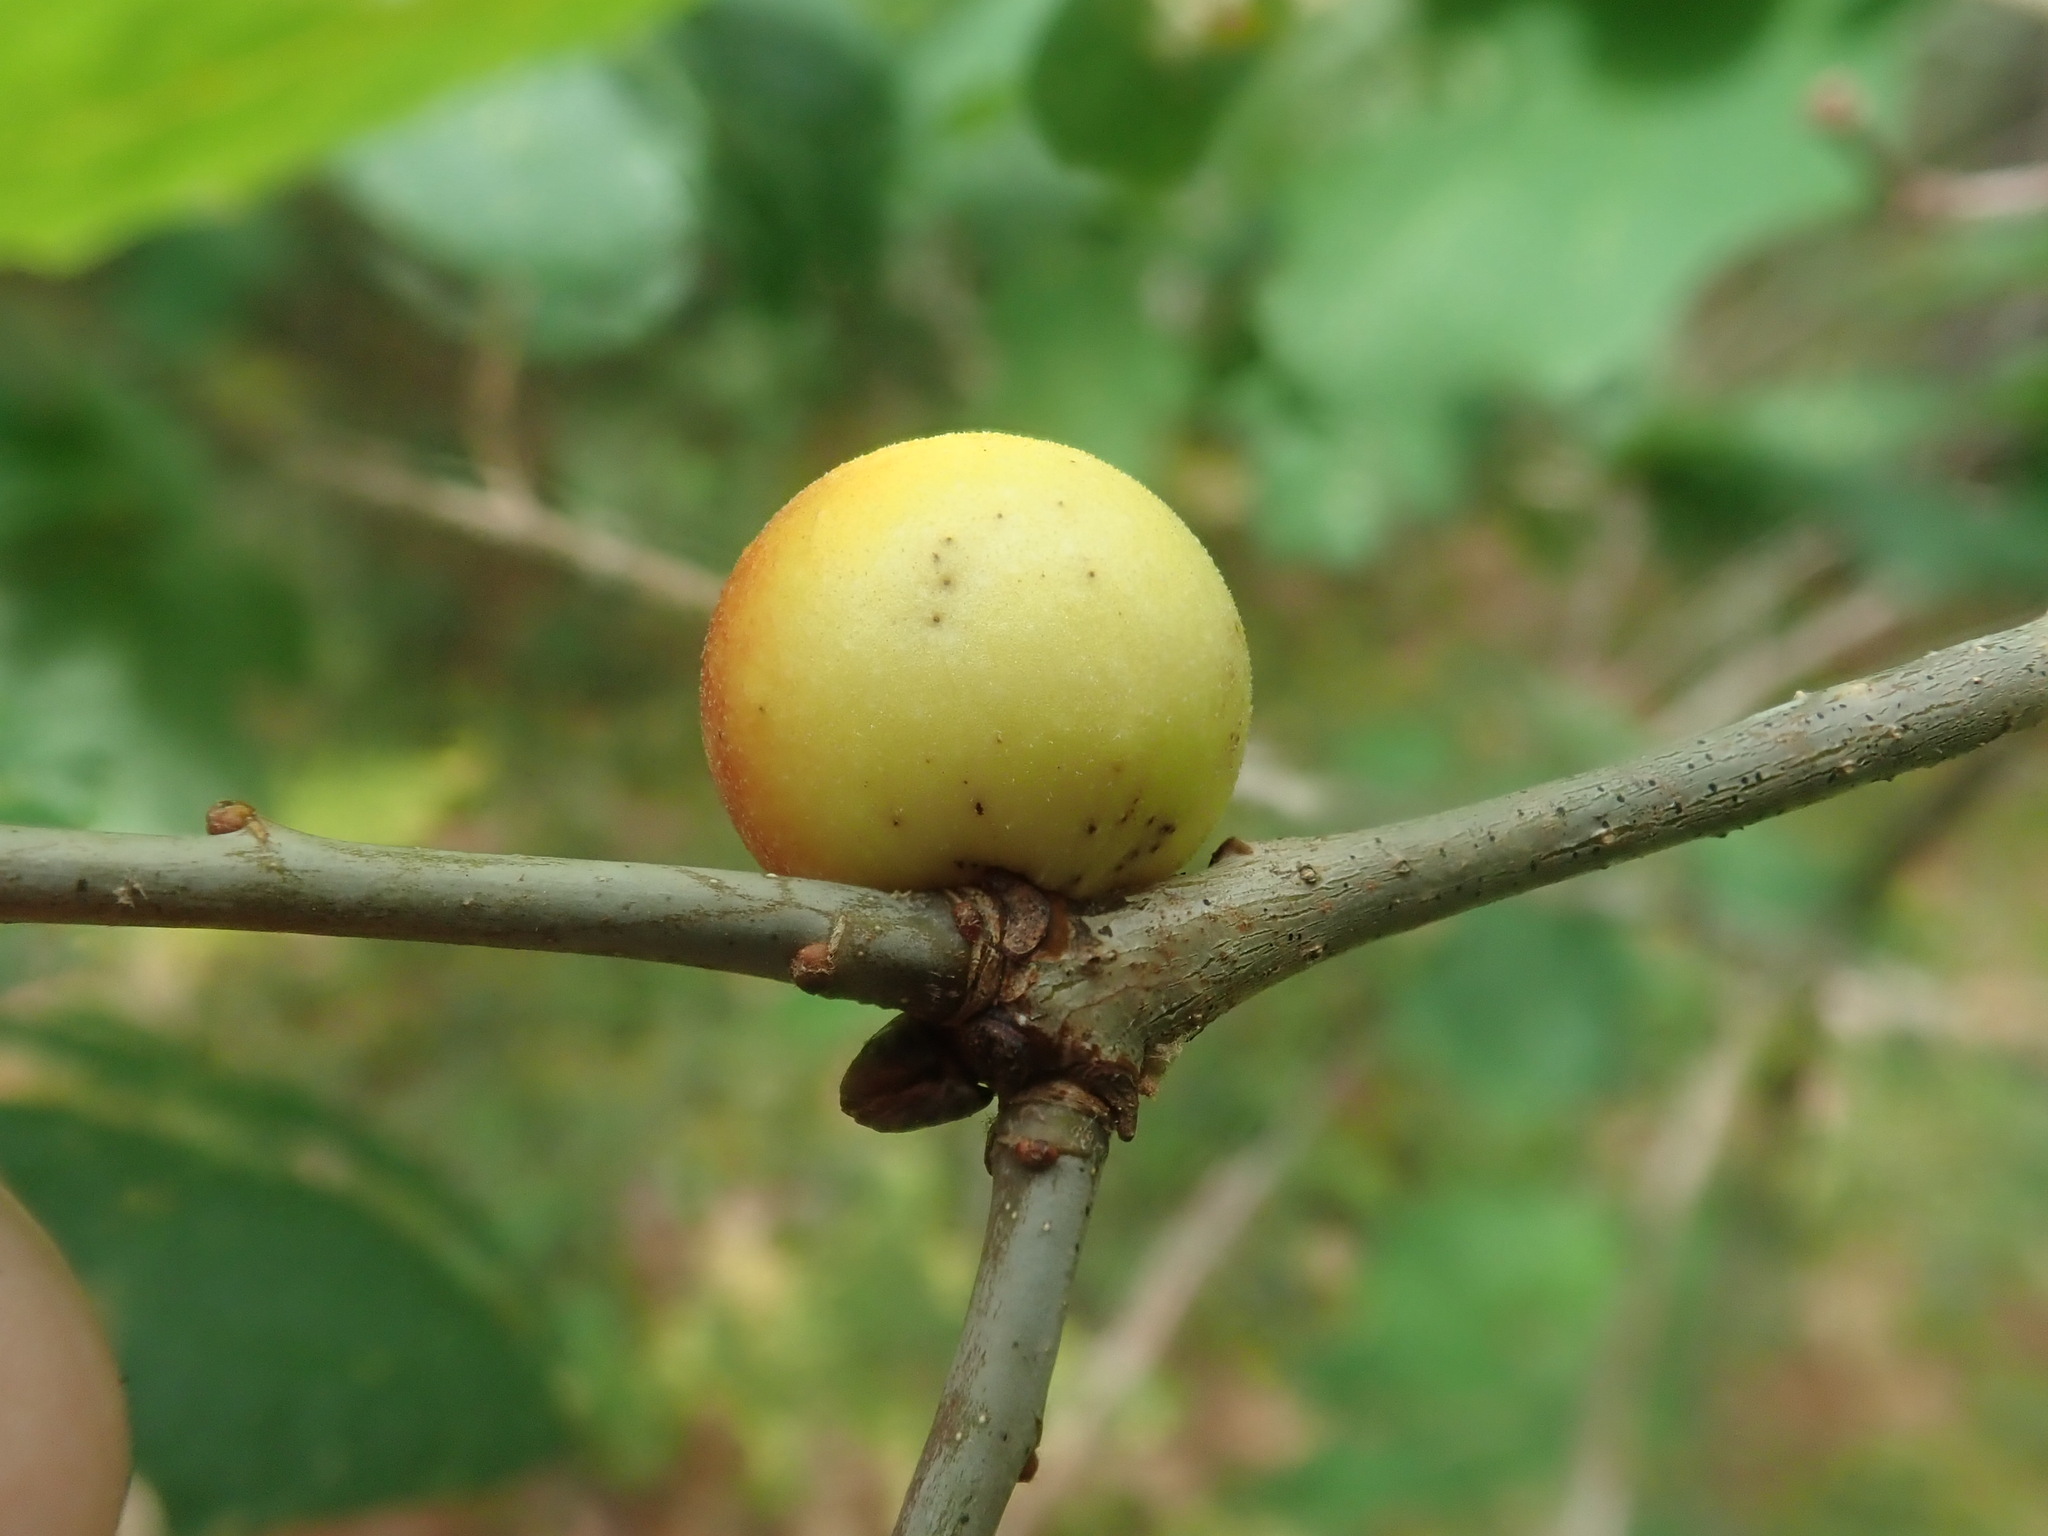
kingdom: Animalia
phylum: Arthropoda
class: Insecta
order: Hymenoptera
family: Cynipidae
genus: Disholcaspis
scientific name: Disholcaspis quercusglobulus
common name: Round bullet gall wasp
